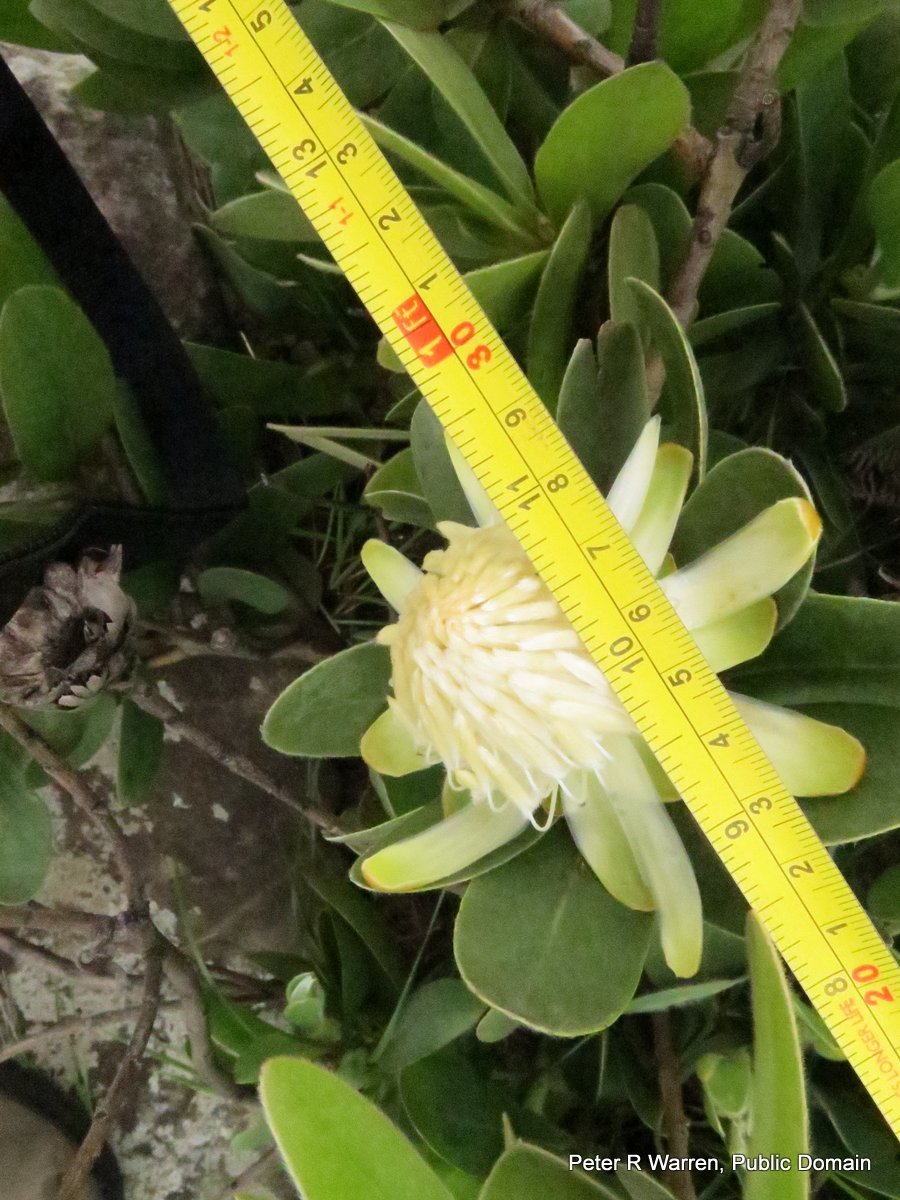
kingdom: Plantae
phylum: Tracheophyta
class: Magnoliopsida
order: Proteales
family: Proteaceae
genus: Protea
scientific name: Protea welwitschii
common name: Cluster-head protea
